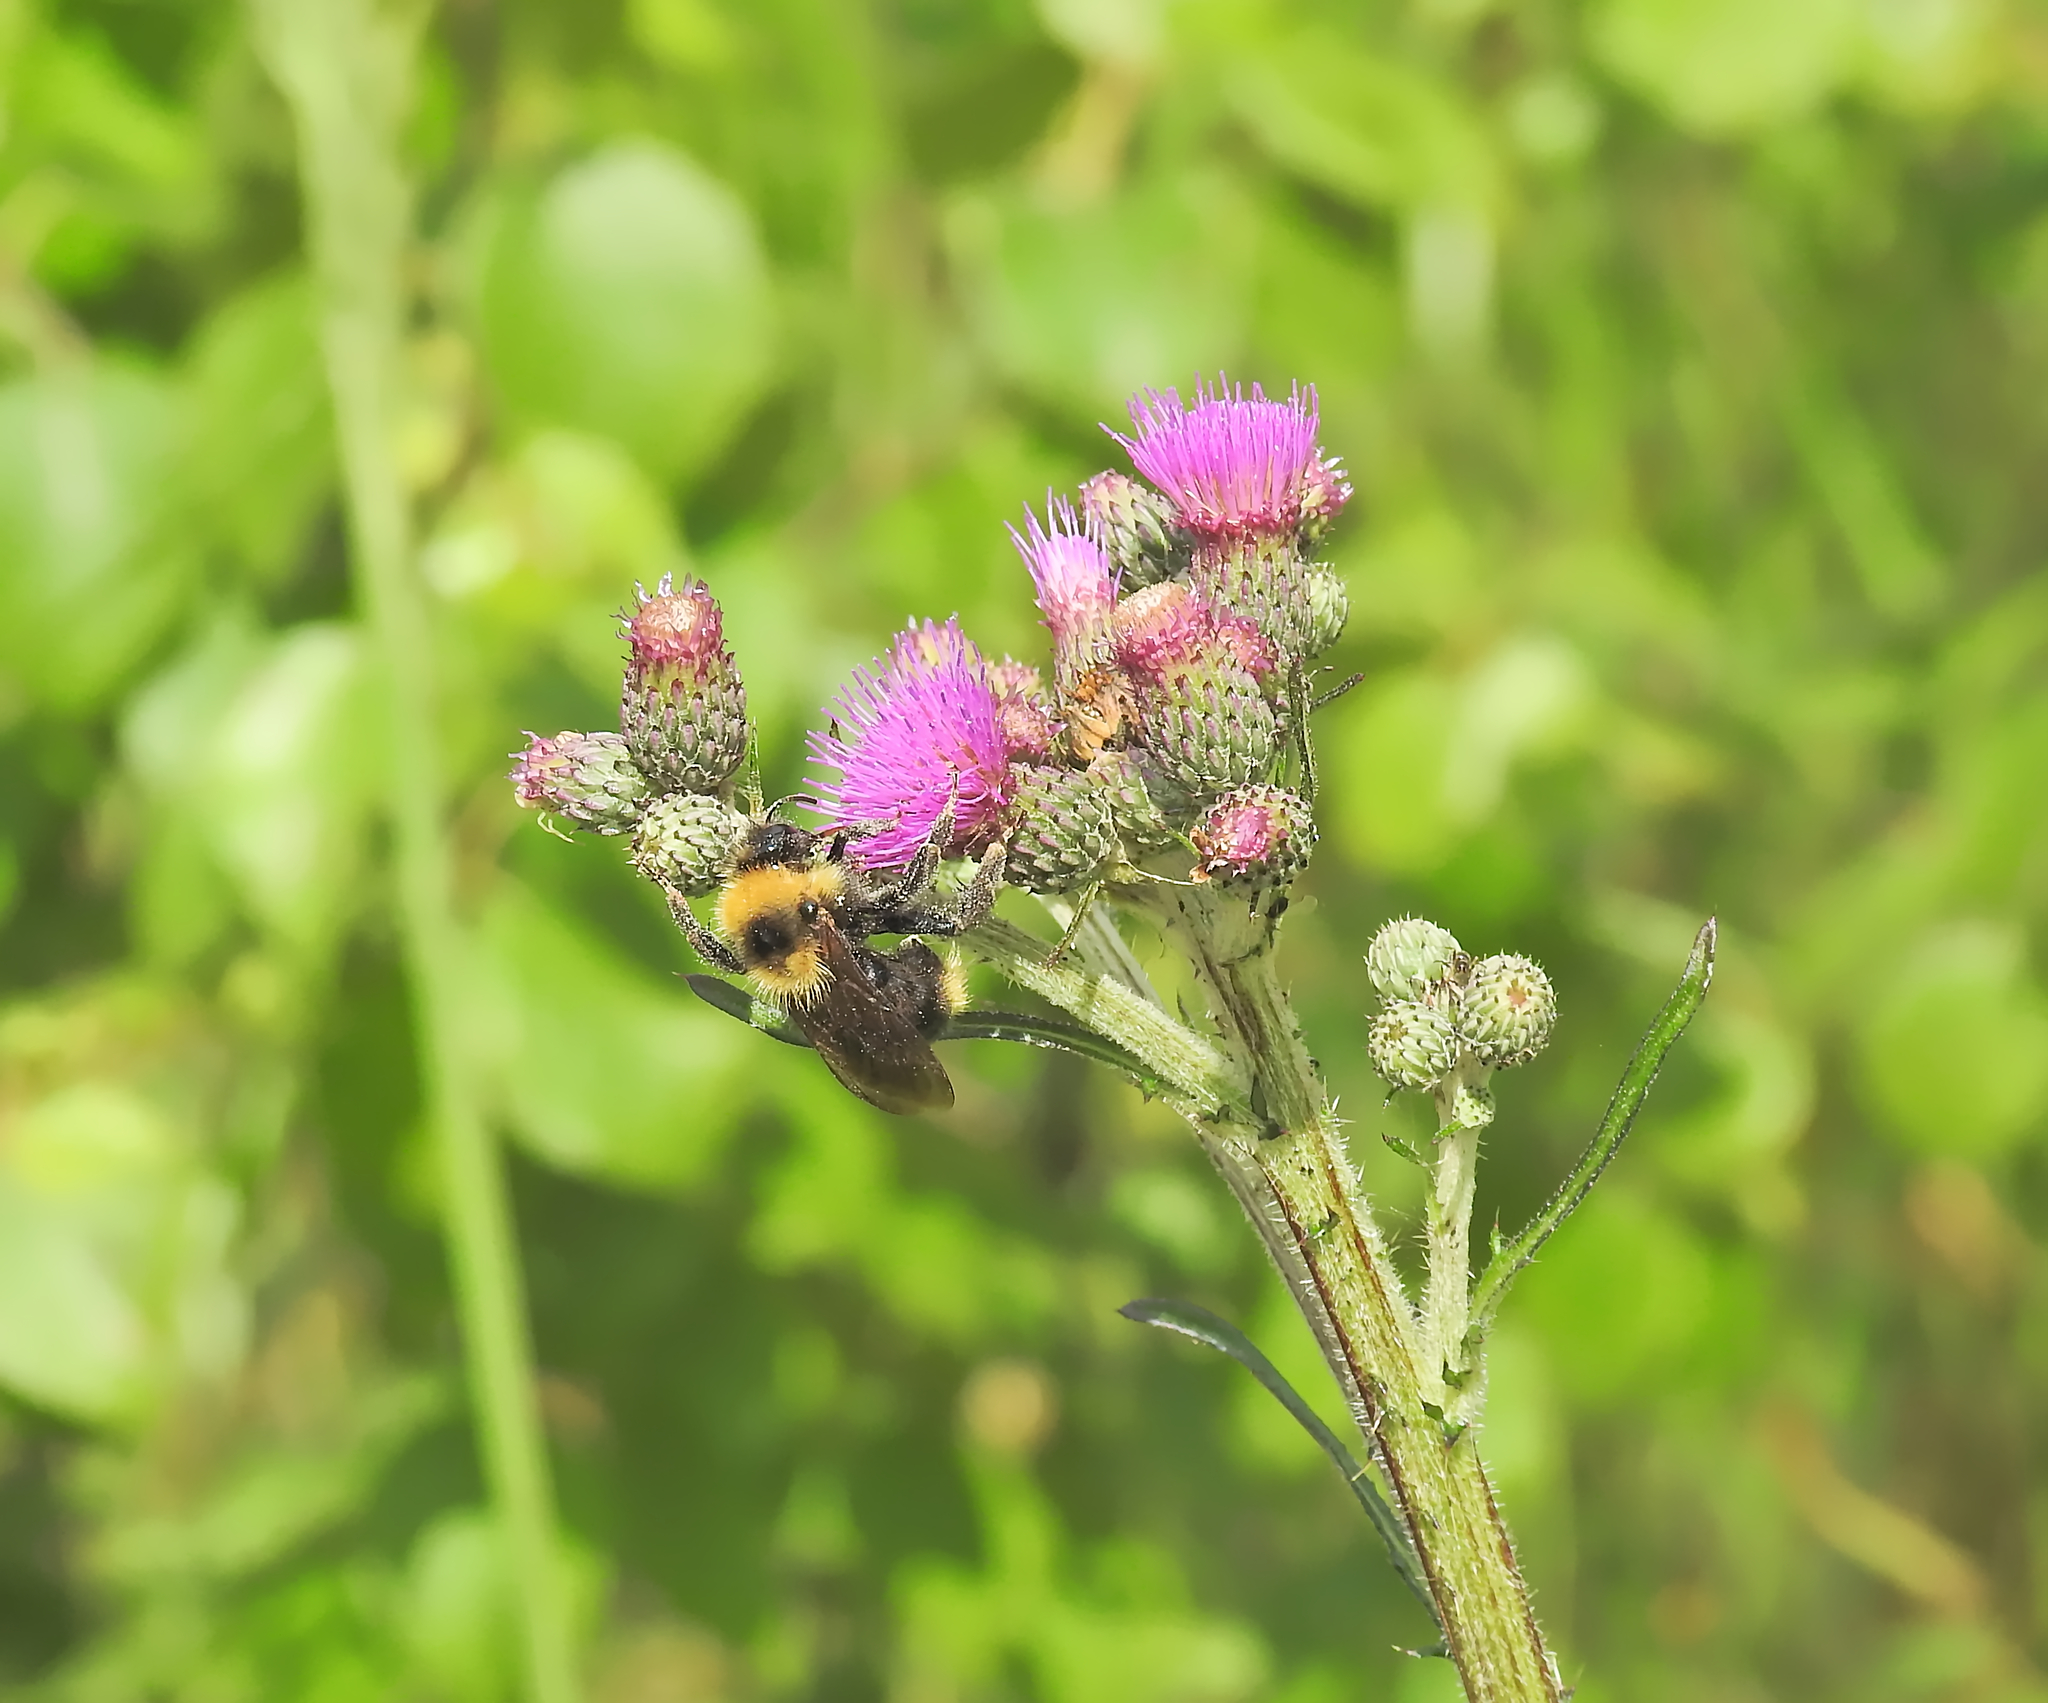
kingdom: Animalia
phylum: Arthropoda
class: Insecta
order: Hymenoptera
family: Apidae
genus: Bombus
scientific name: Bombus campestris
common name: Field cuckoo-bee
